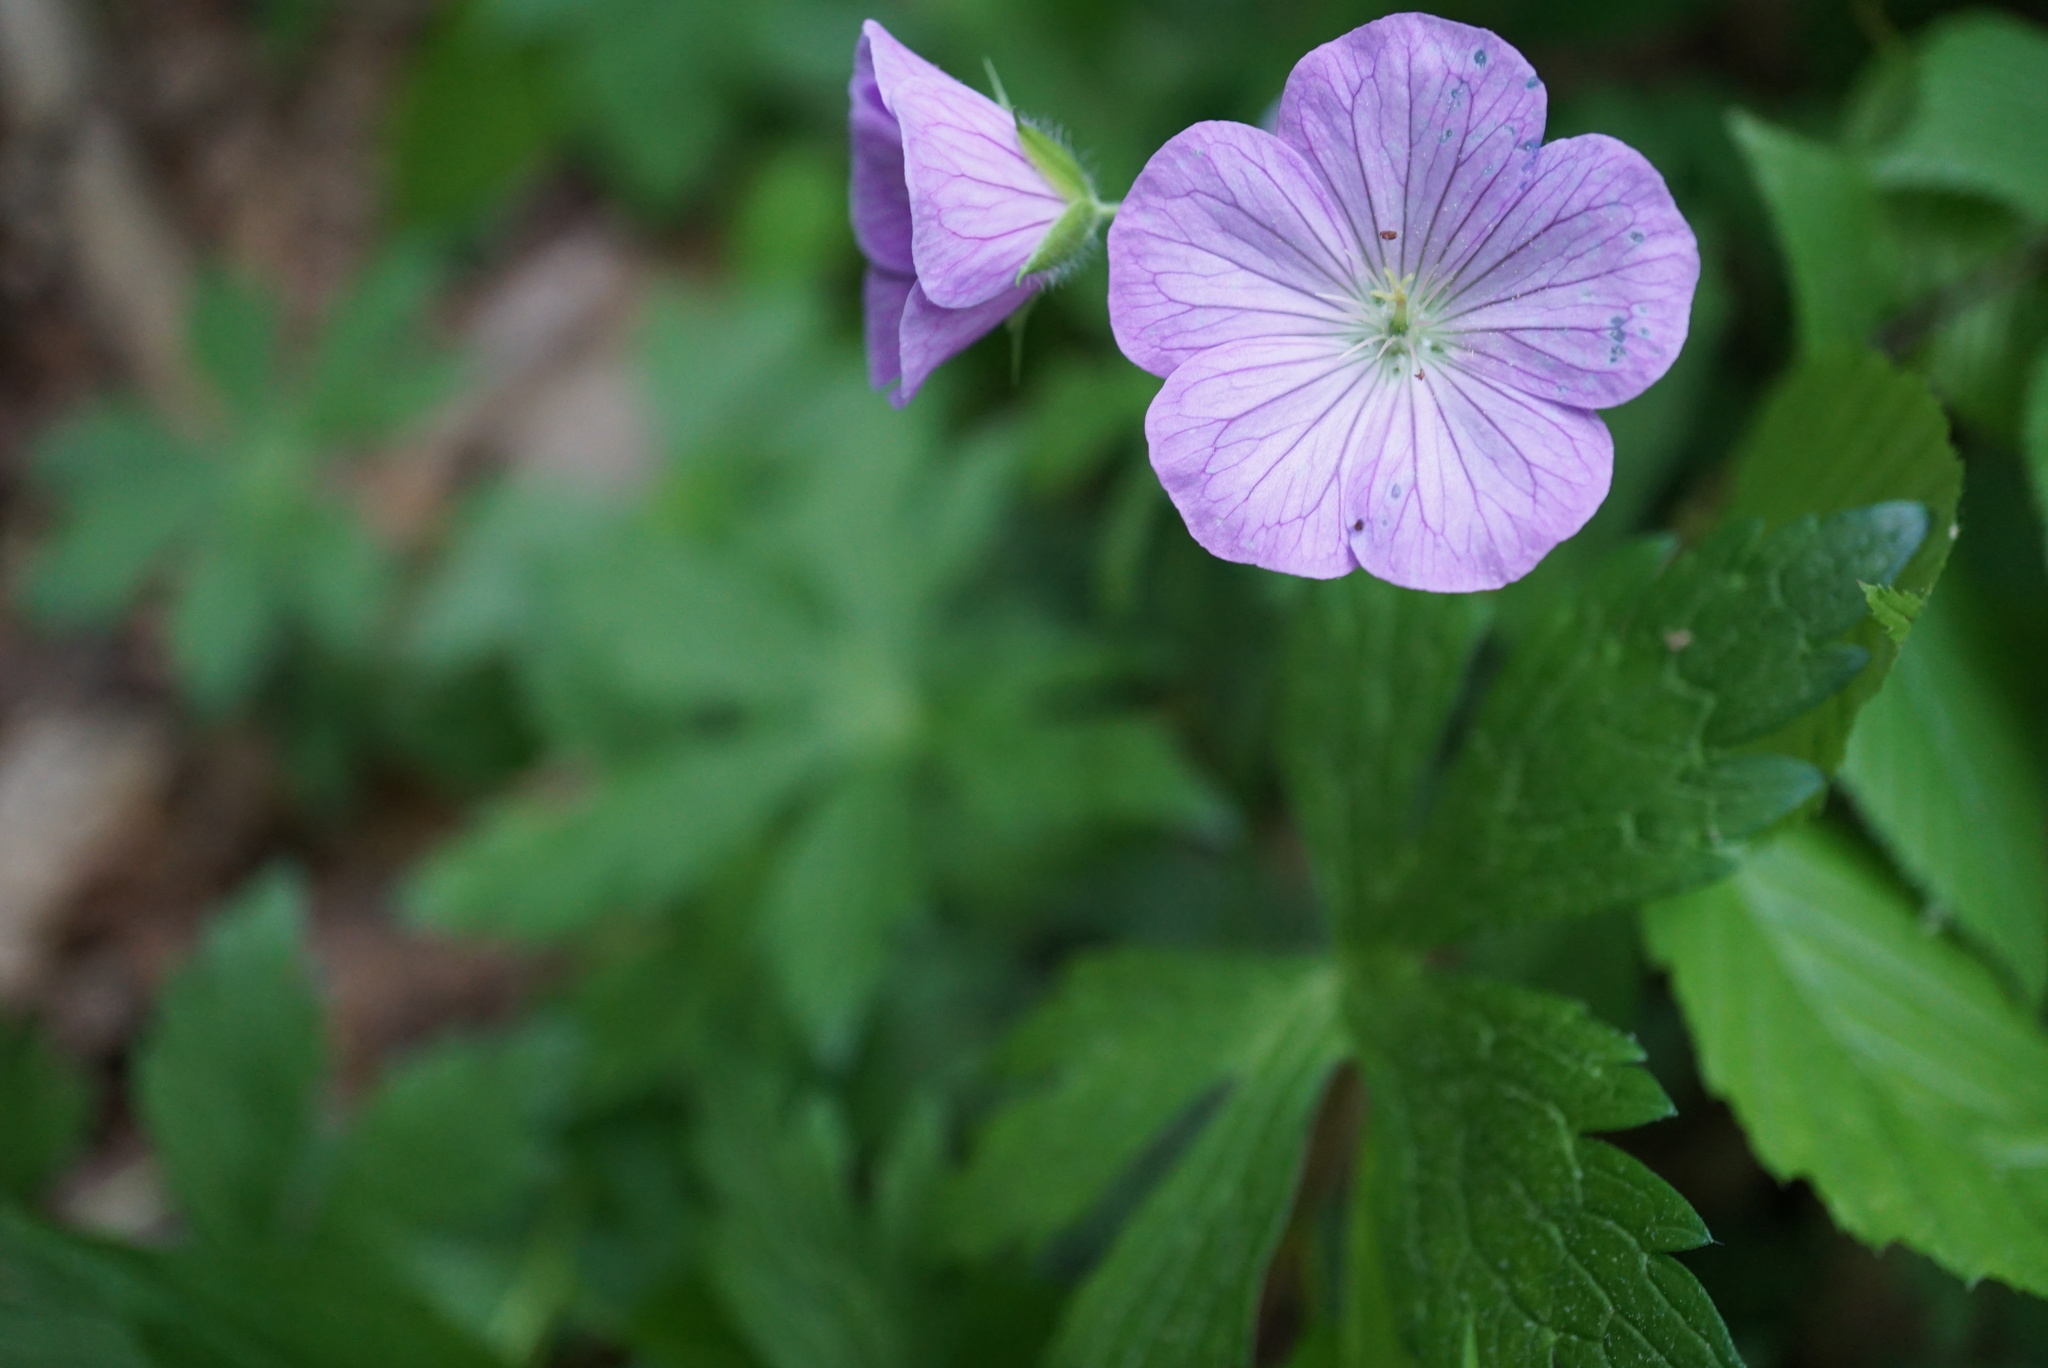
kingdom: Plantae
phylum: Tracheophyta
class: Magnoliopsida
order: Geraniales
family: Geraniaceae
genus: Geranium
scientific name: Geranium maculatum
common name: Spotted geranium
